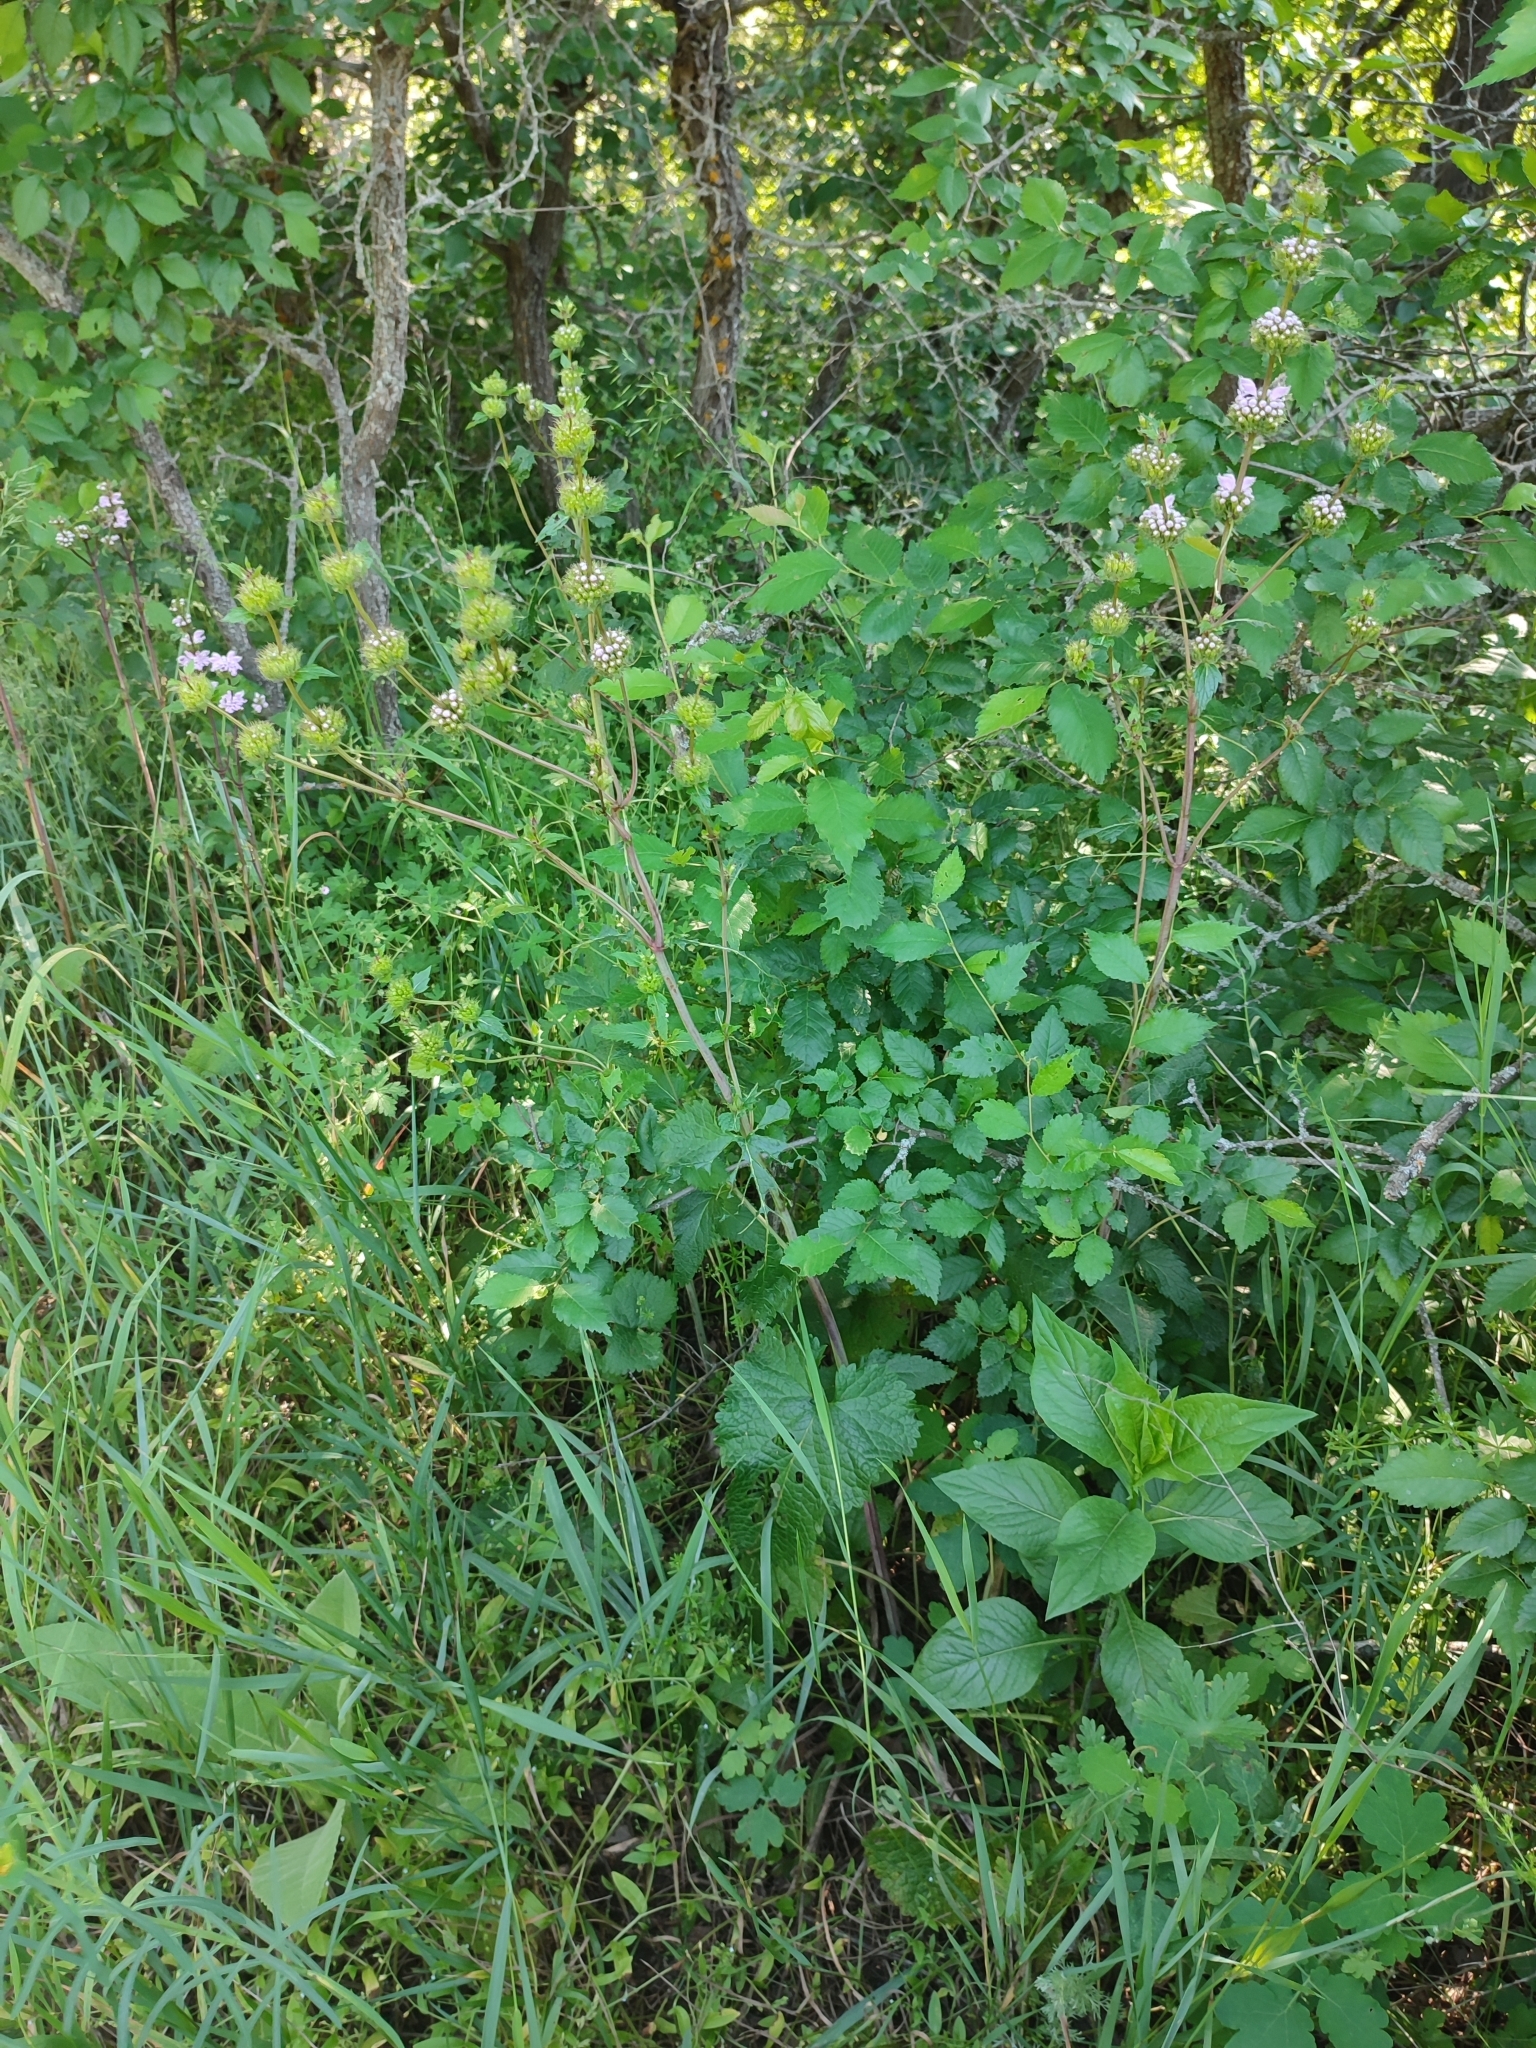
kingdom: Plantae
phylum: Tracheophyta
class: Magnoliopsida
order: Lamiales
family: Lamiaceae
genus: Phlomoides
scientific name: Phlomoides tuberosa
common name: Tuberous jerusalem sage
